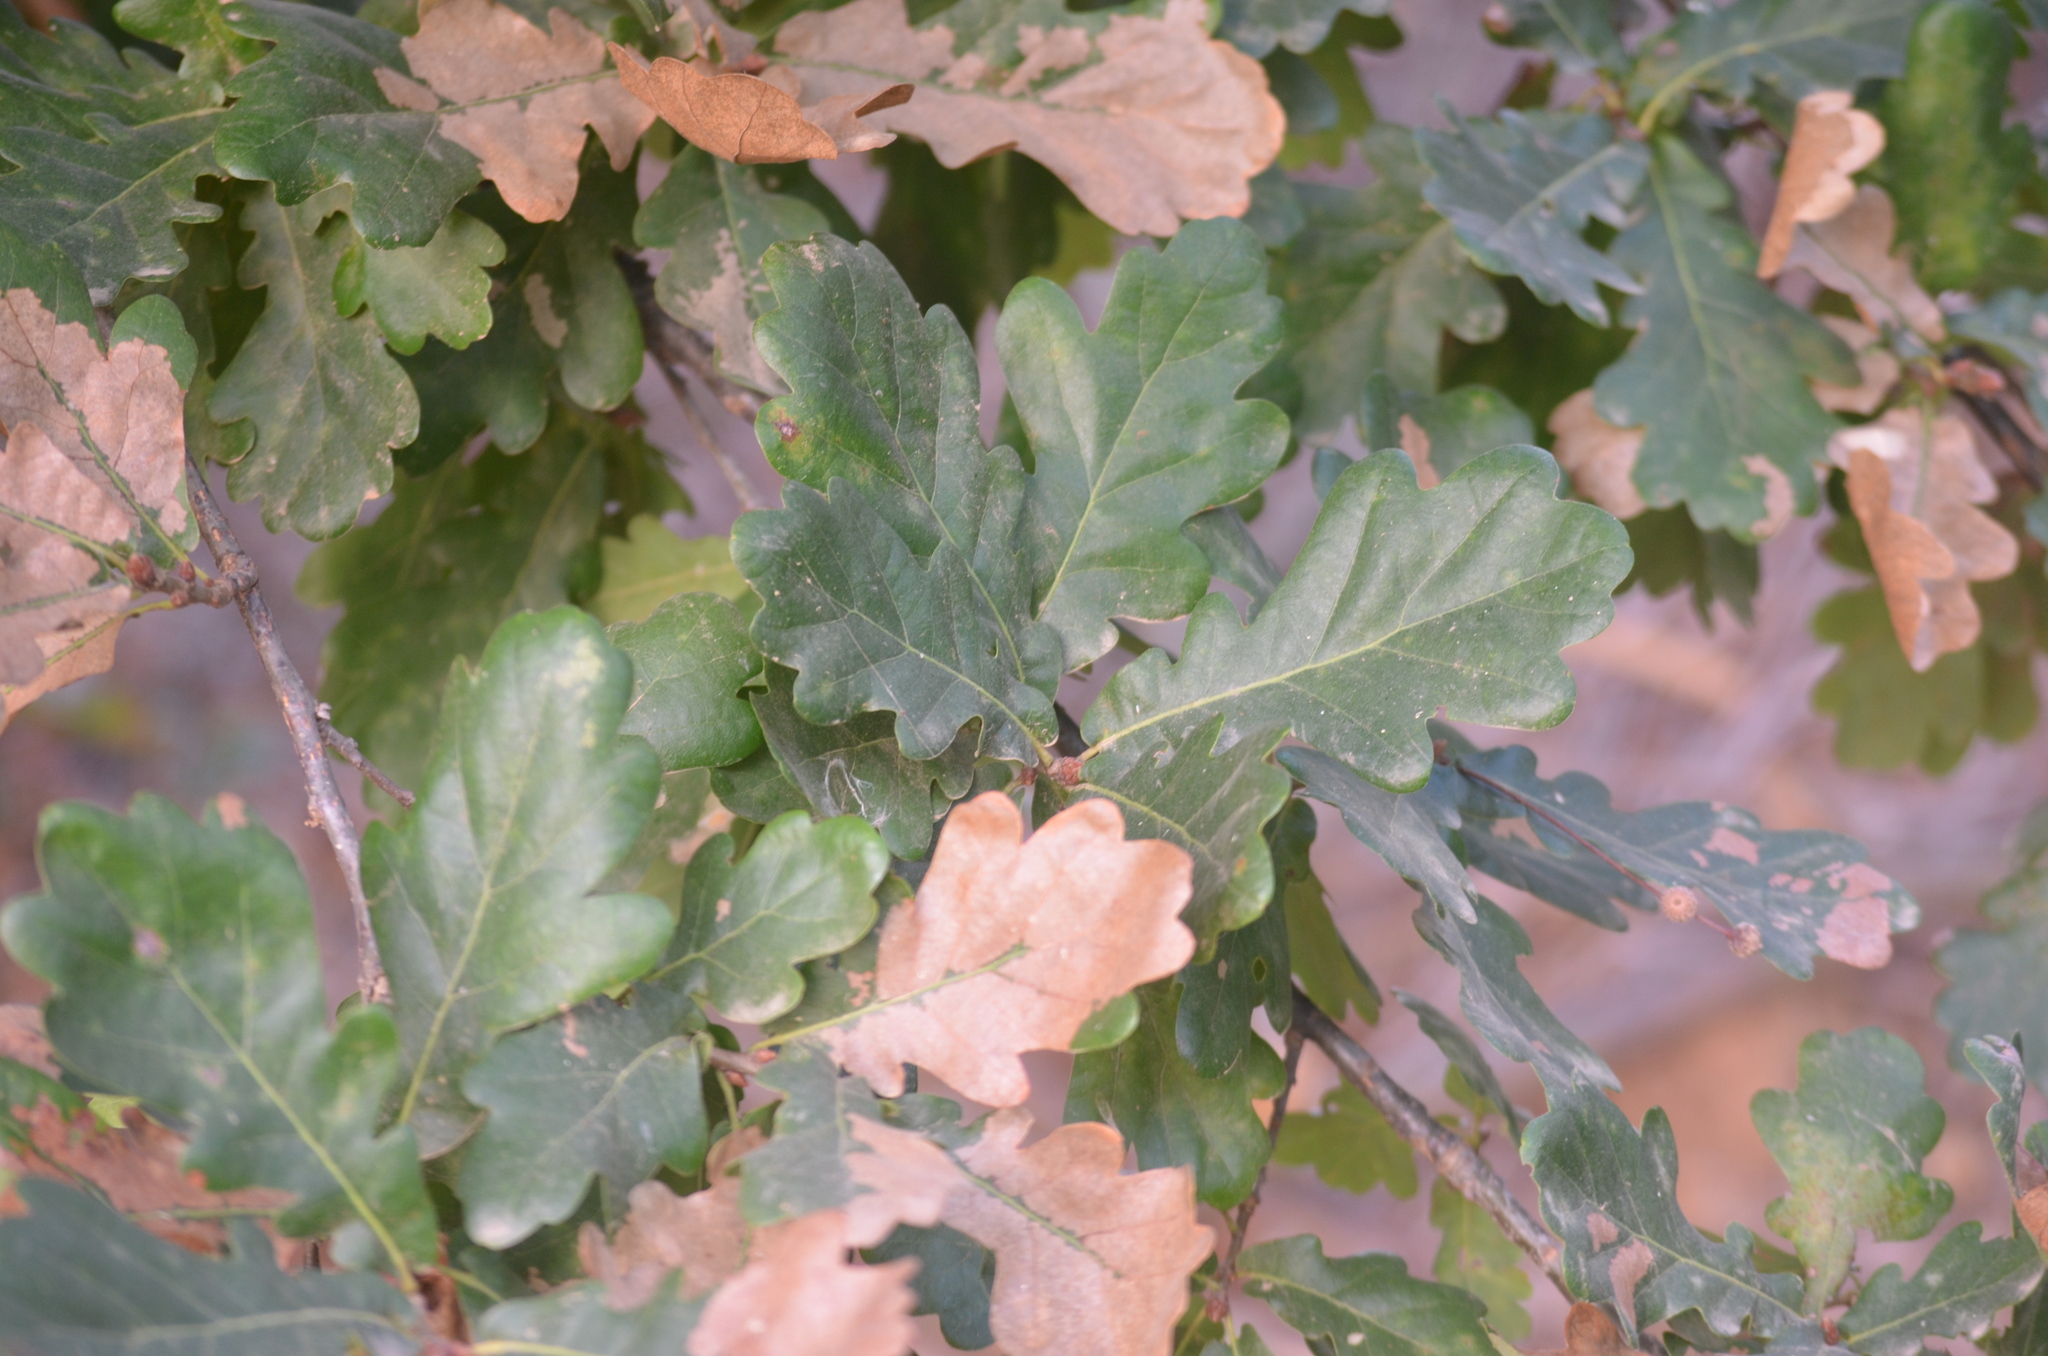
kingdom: Plantae
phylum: Tracheophyta
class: Magnoliopsida
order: Fagales
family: Fagaceae
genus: Quercus
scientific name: Quercus pubescens
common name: Downy oak
